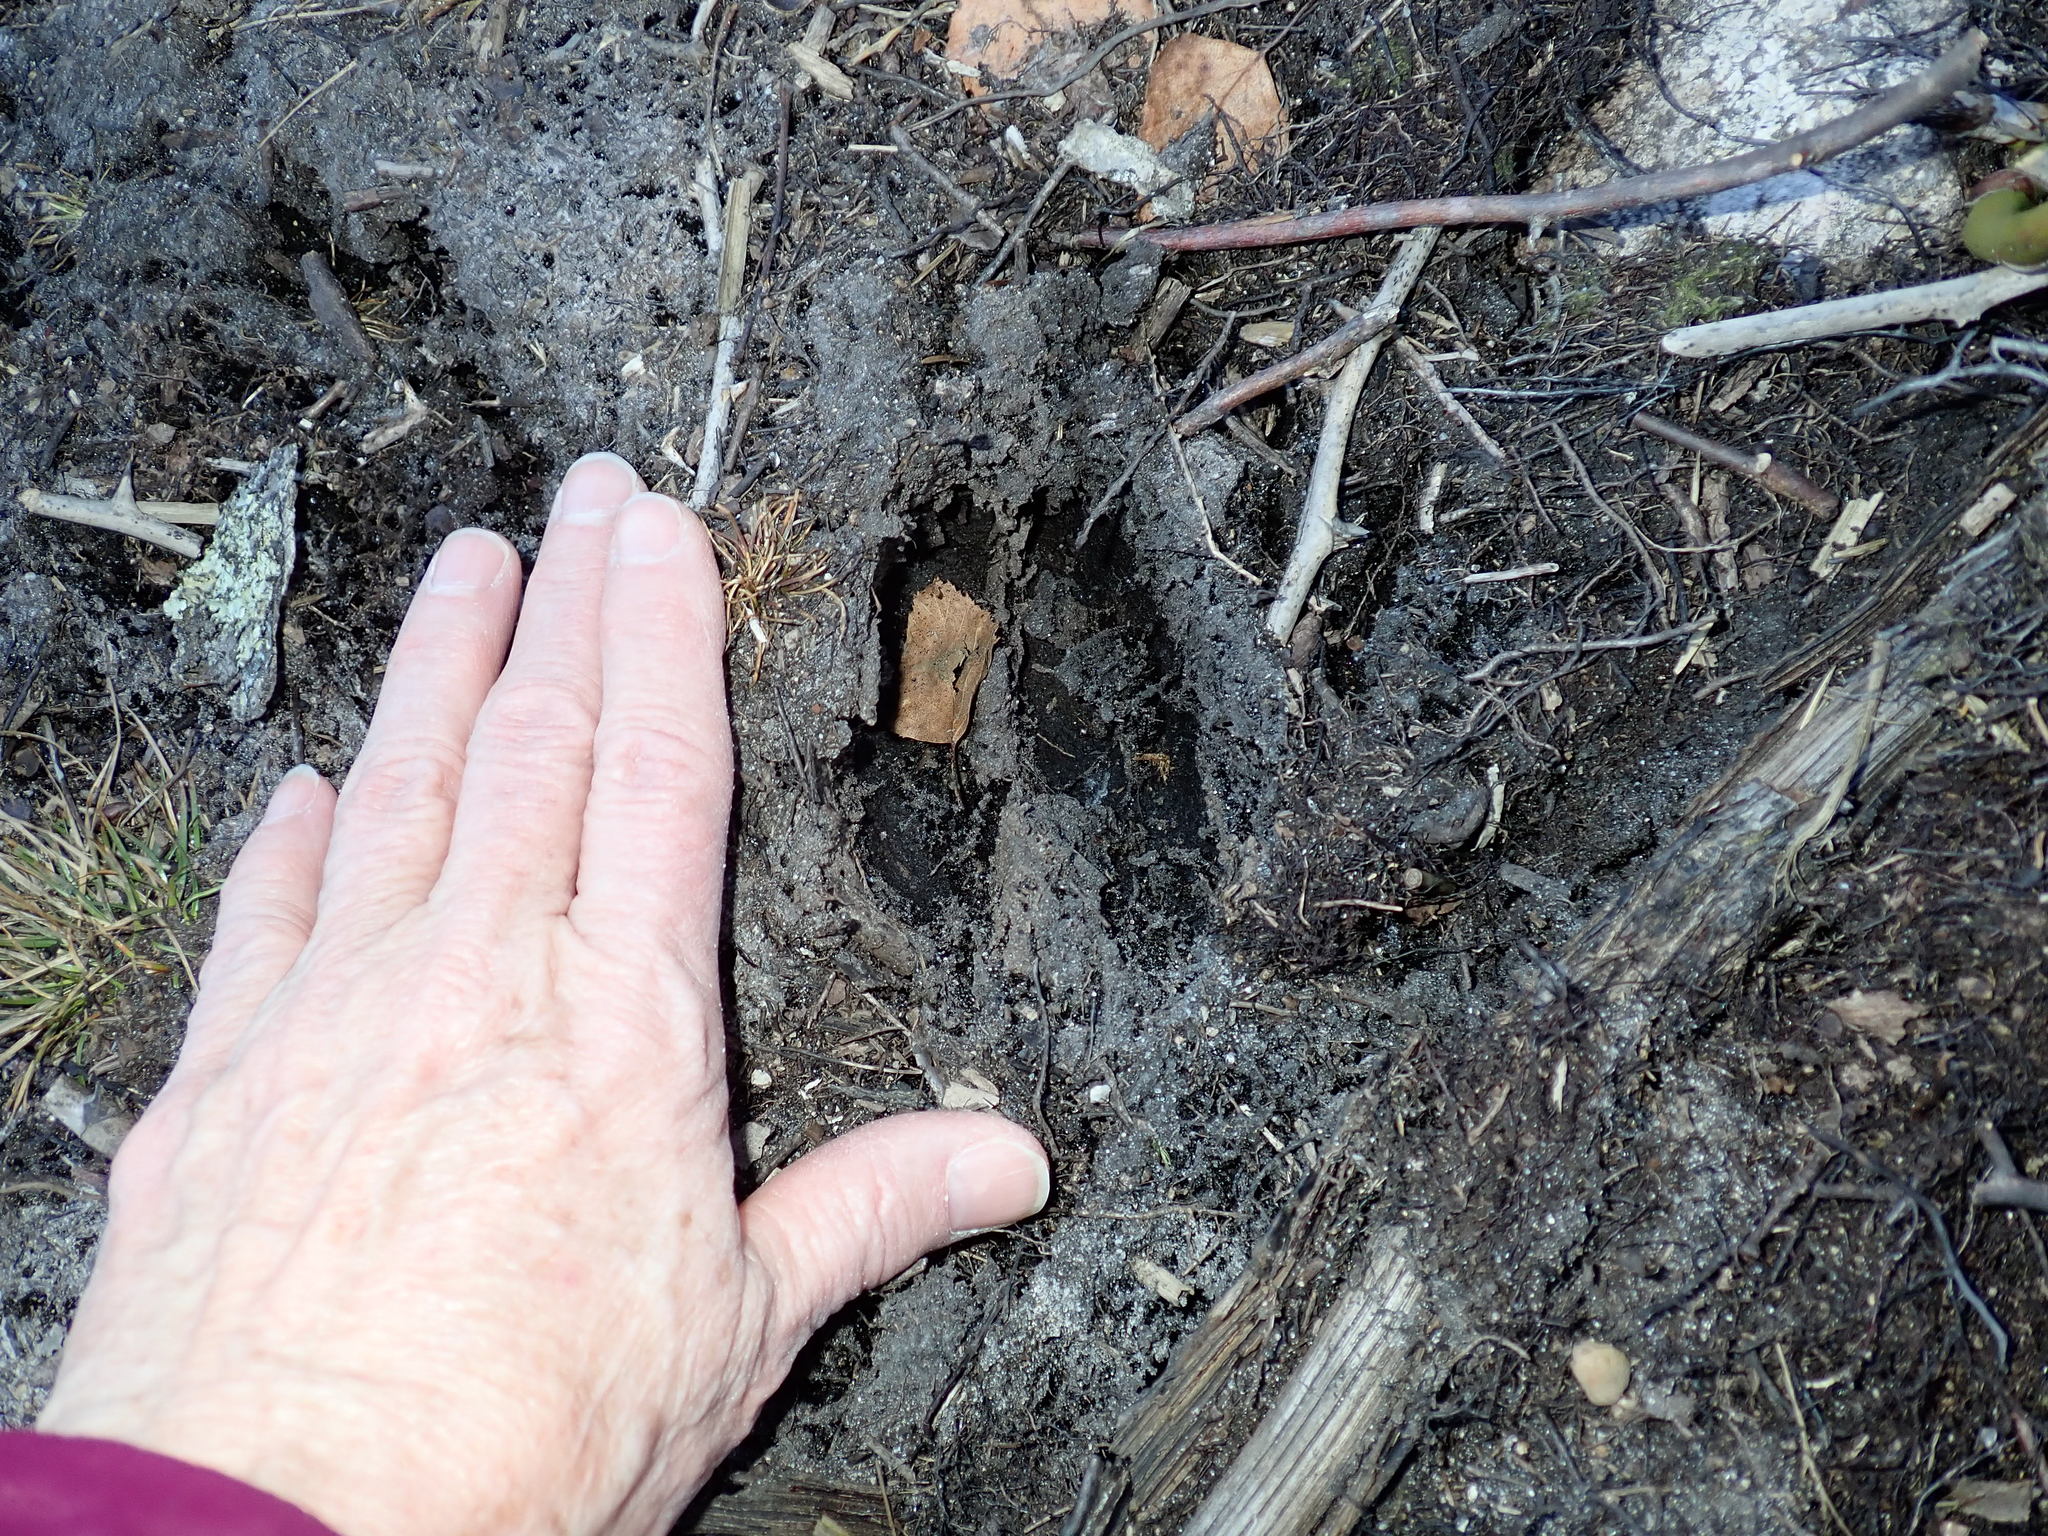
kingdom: Animalia
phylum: Chordata
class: Mammalia
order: Artiodactyla
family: Cervidae
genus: Odocoileus
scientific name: Odocoileus virginianus
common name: White-tailed deer
